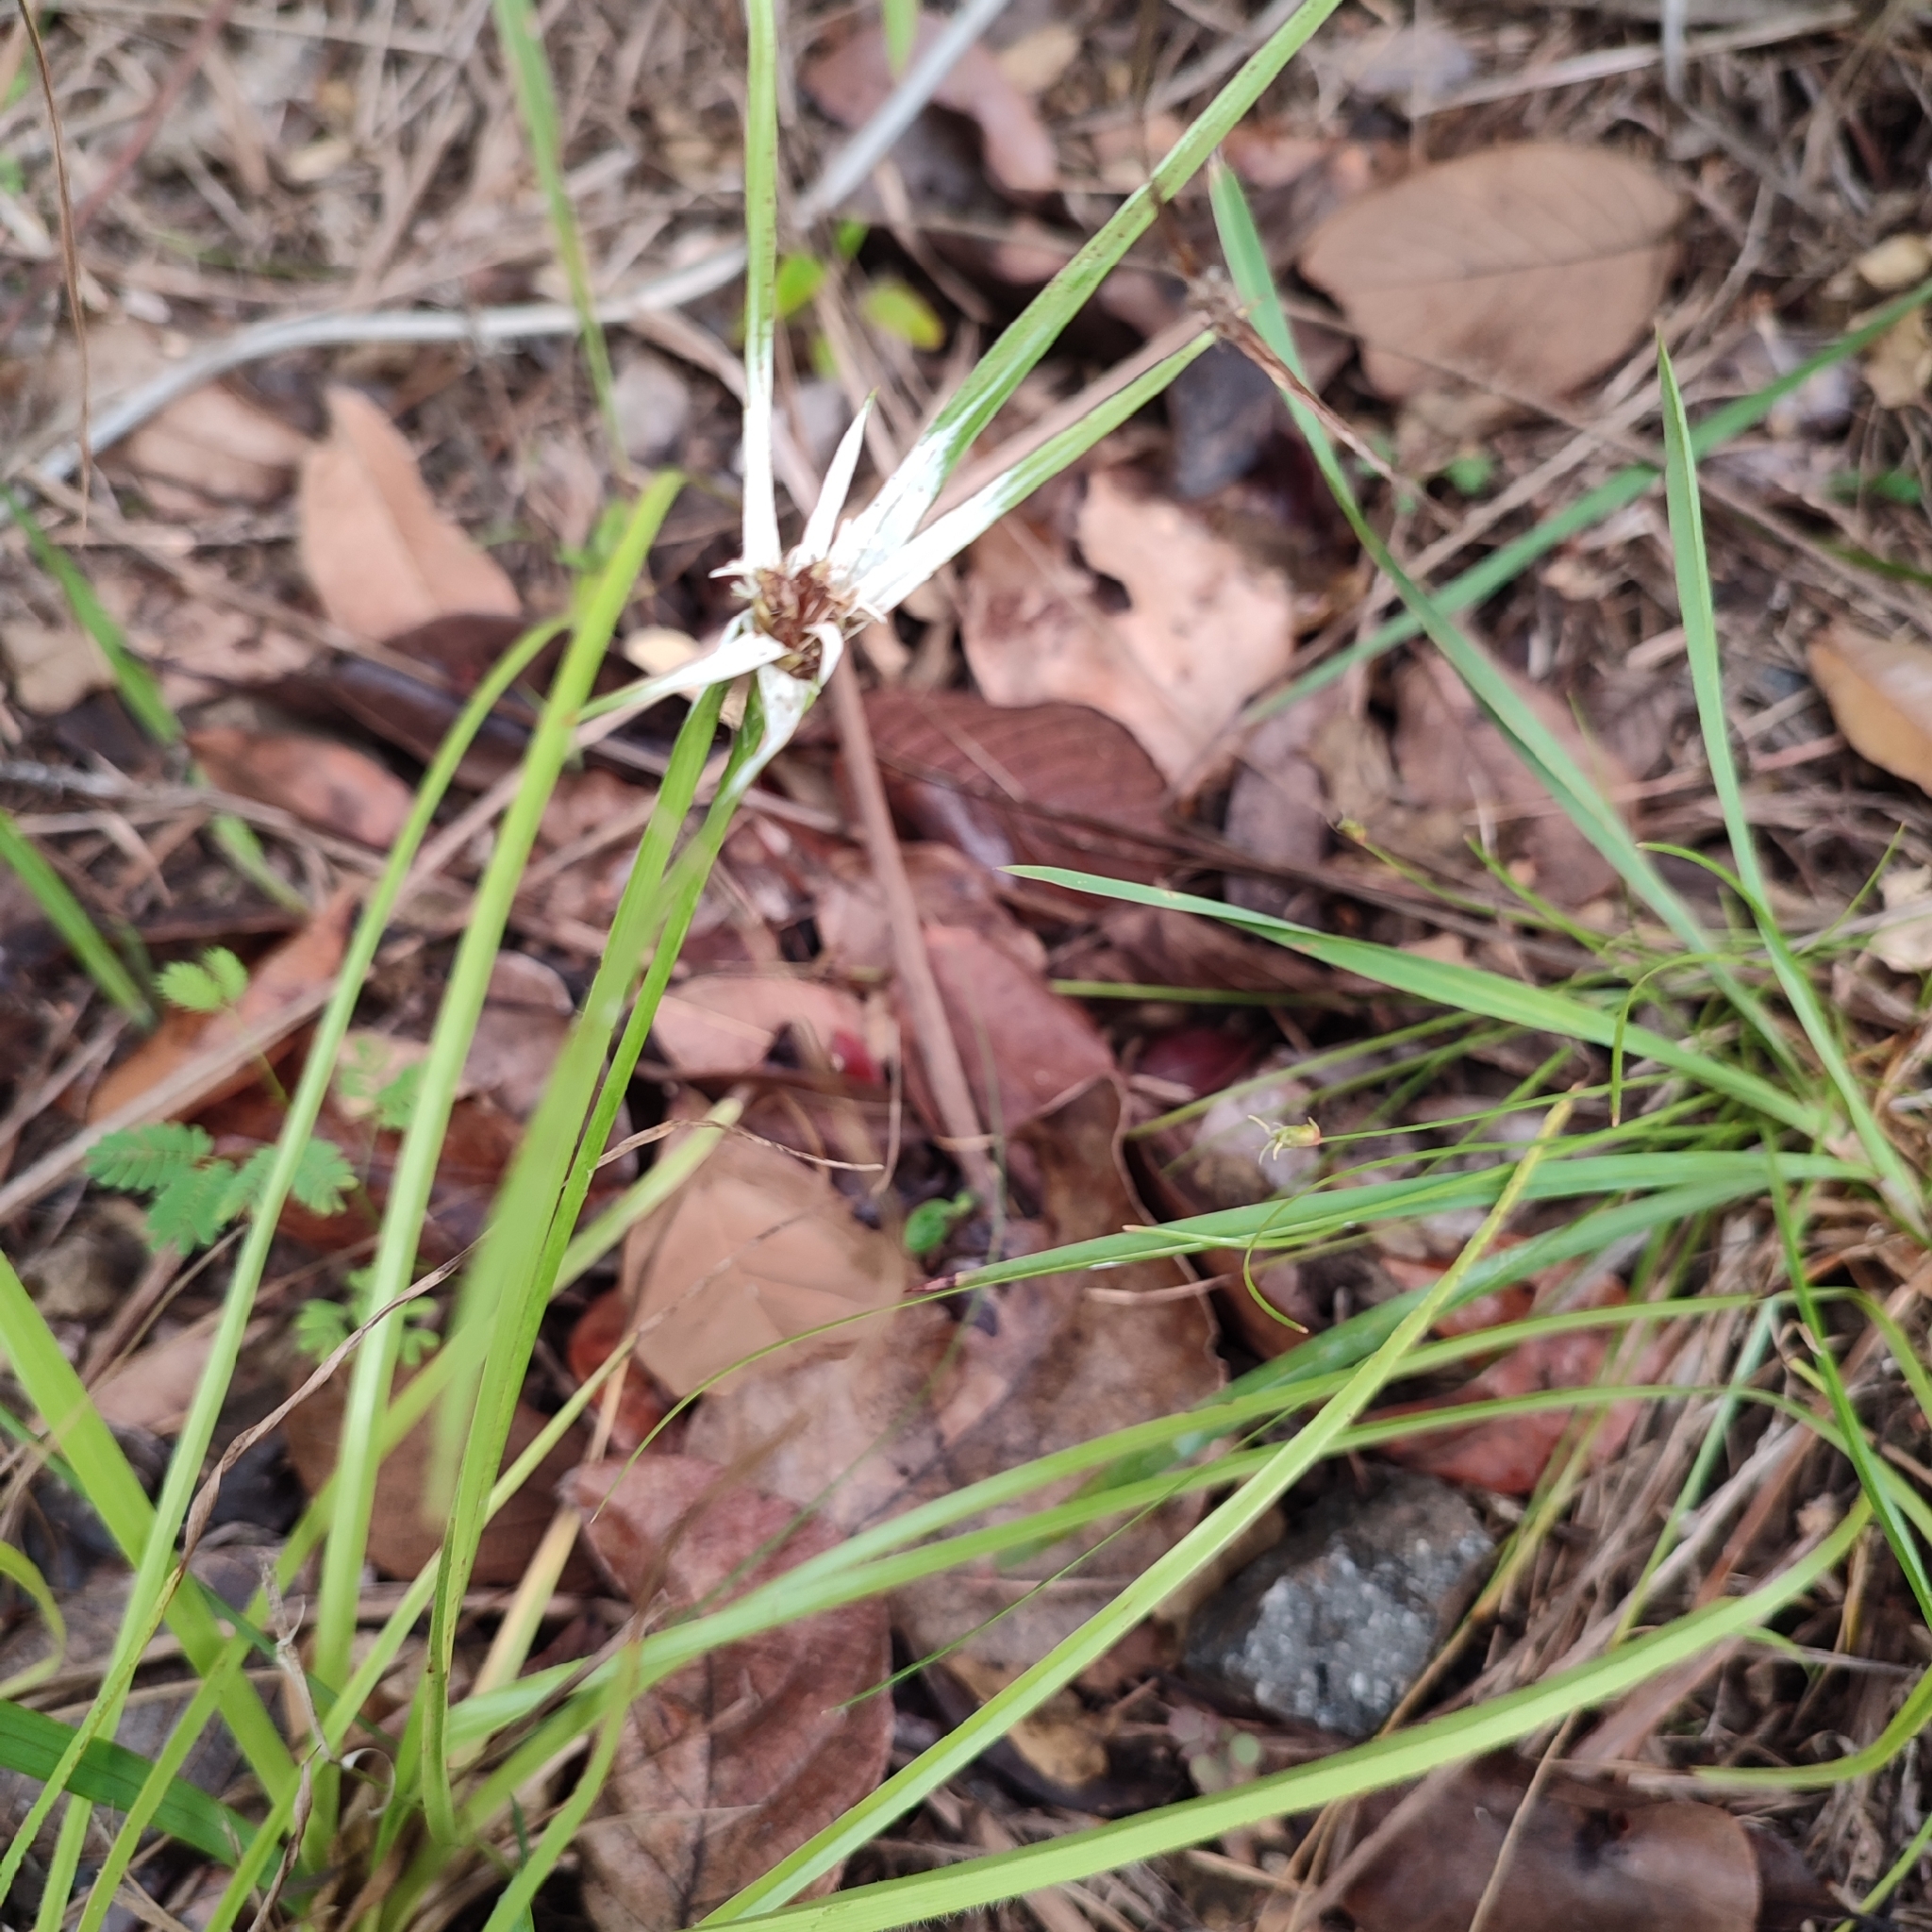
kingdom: Plantae
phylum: Tracheophyta
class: Liliopsida
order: Poales
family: Cyperaceae
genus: Rhynchospora
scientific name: Rhynchospora nervosa
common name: Star sedge
